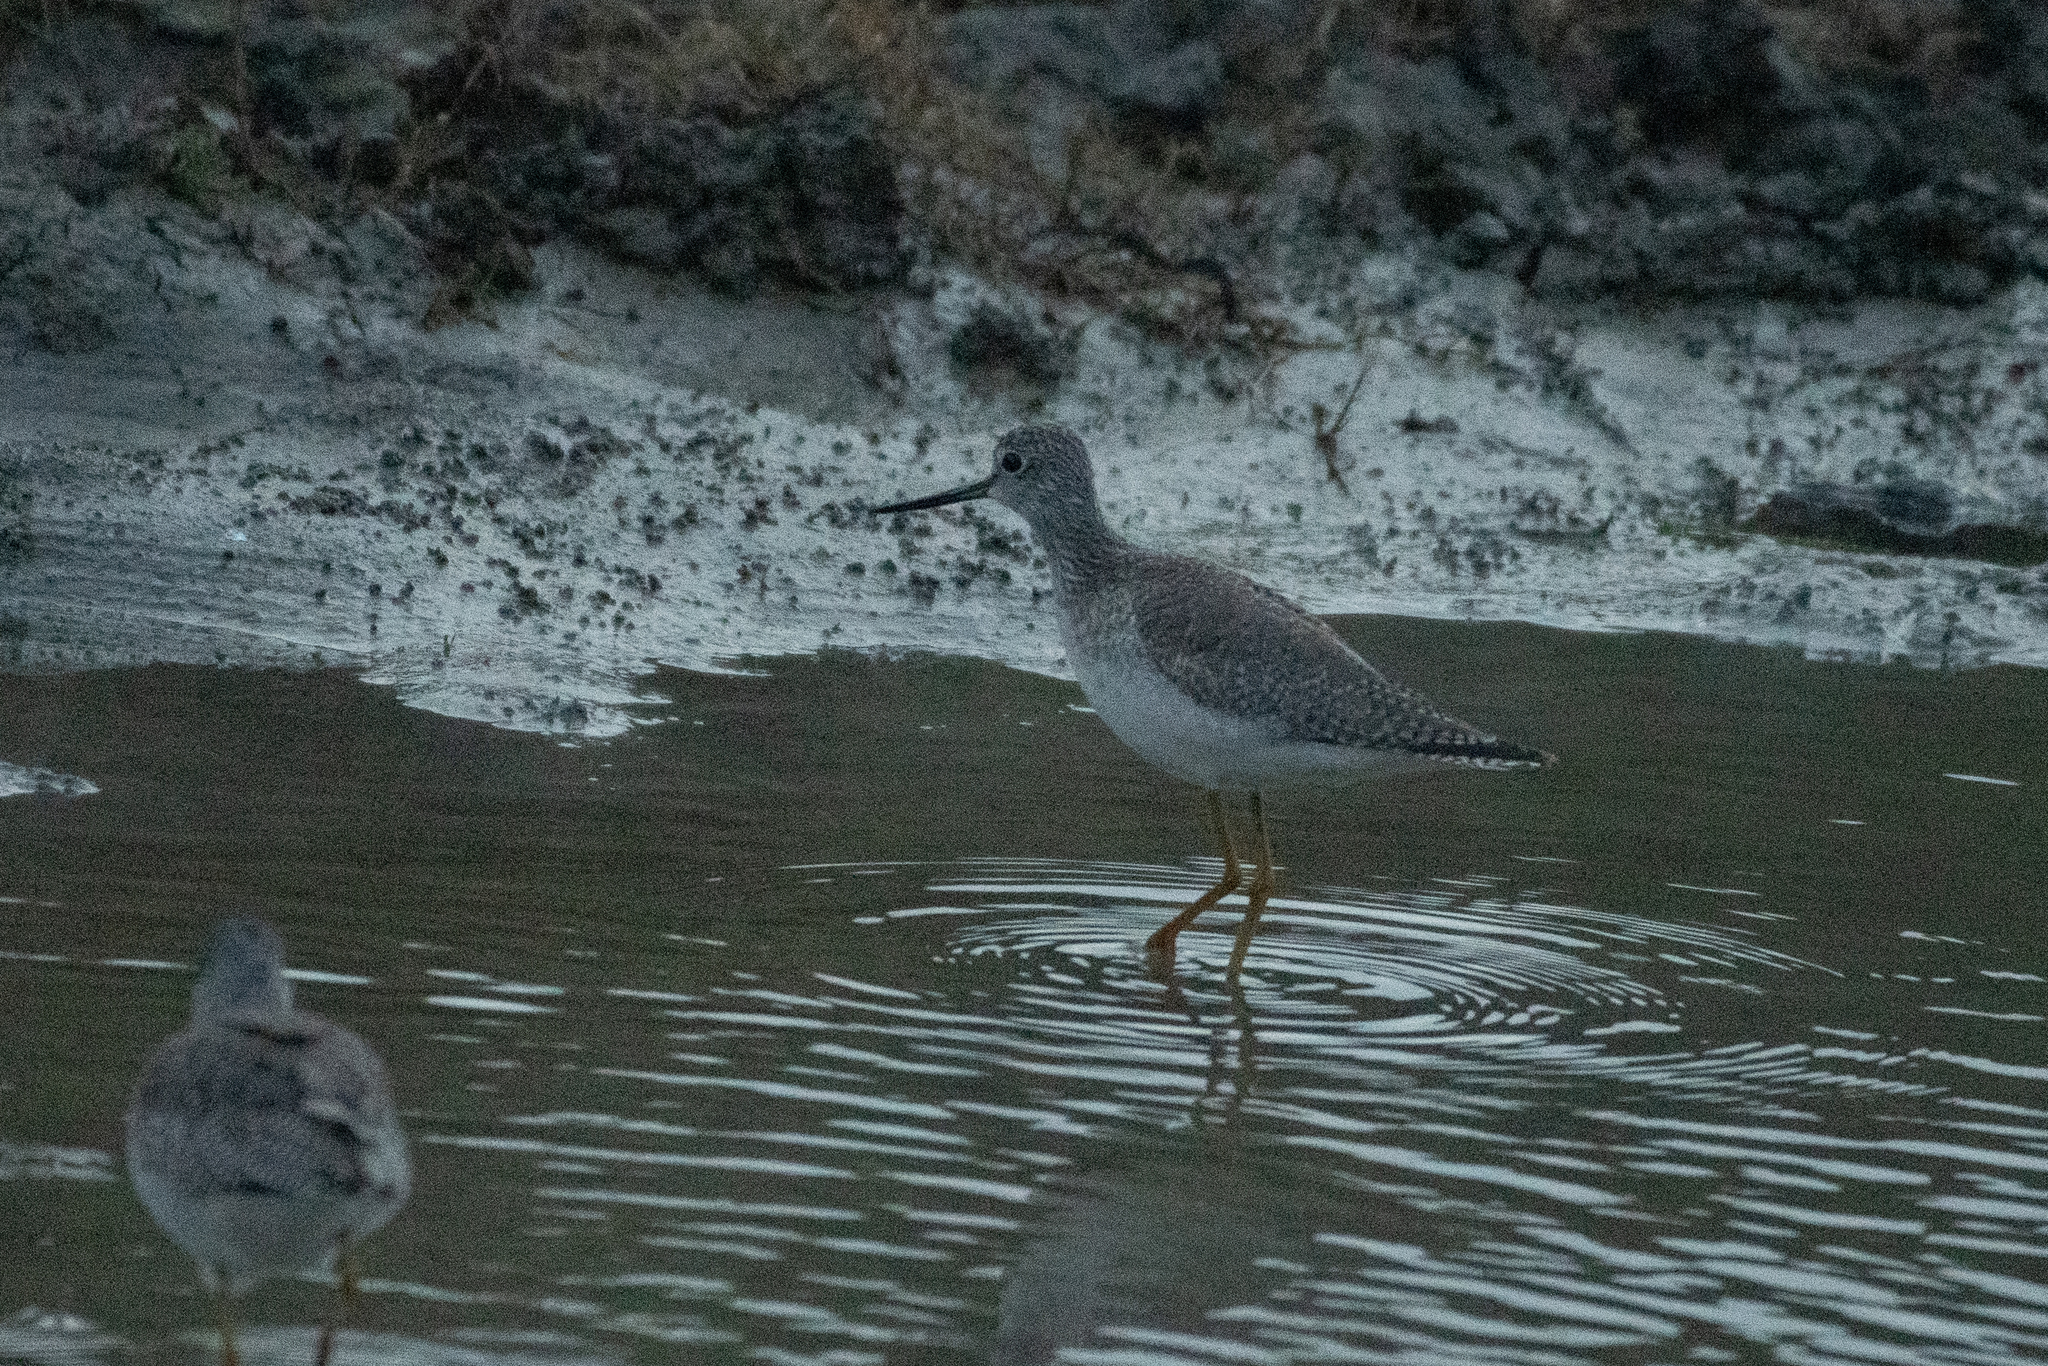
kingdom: Animalia
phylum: Chordata
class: Aves
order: Charadriiformes
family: Scolopacidae
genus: Tringa
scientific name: Tringa melanoleuca
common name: Greater yellowlegs
